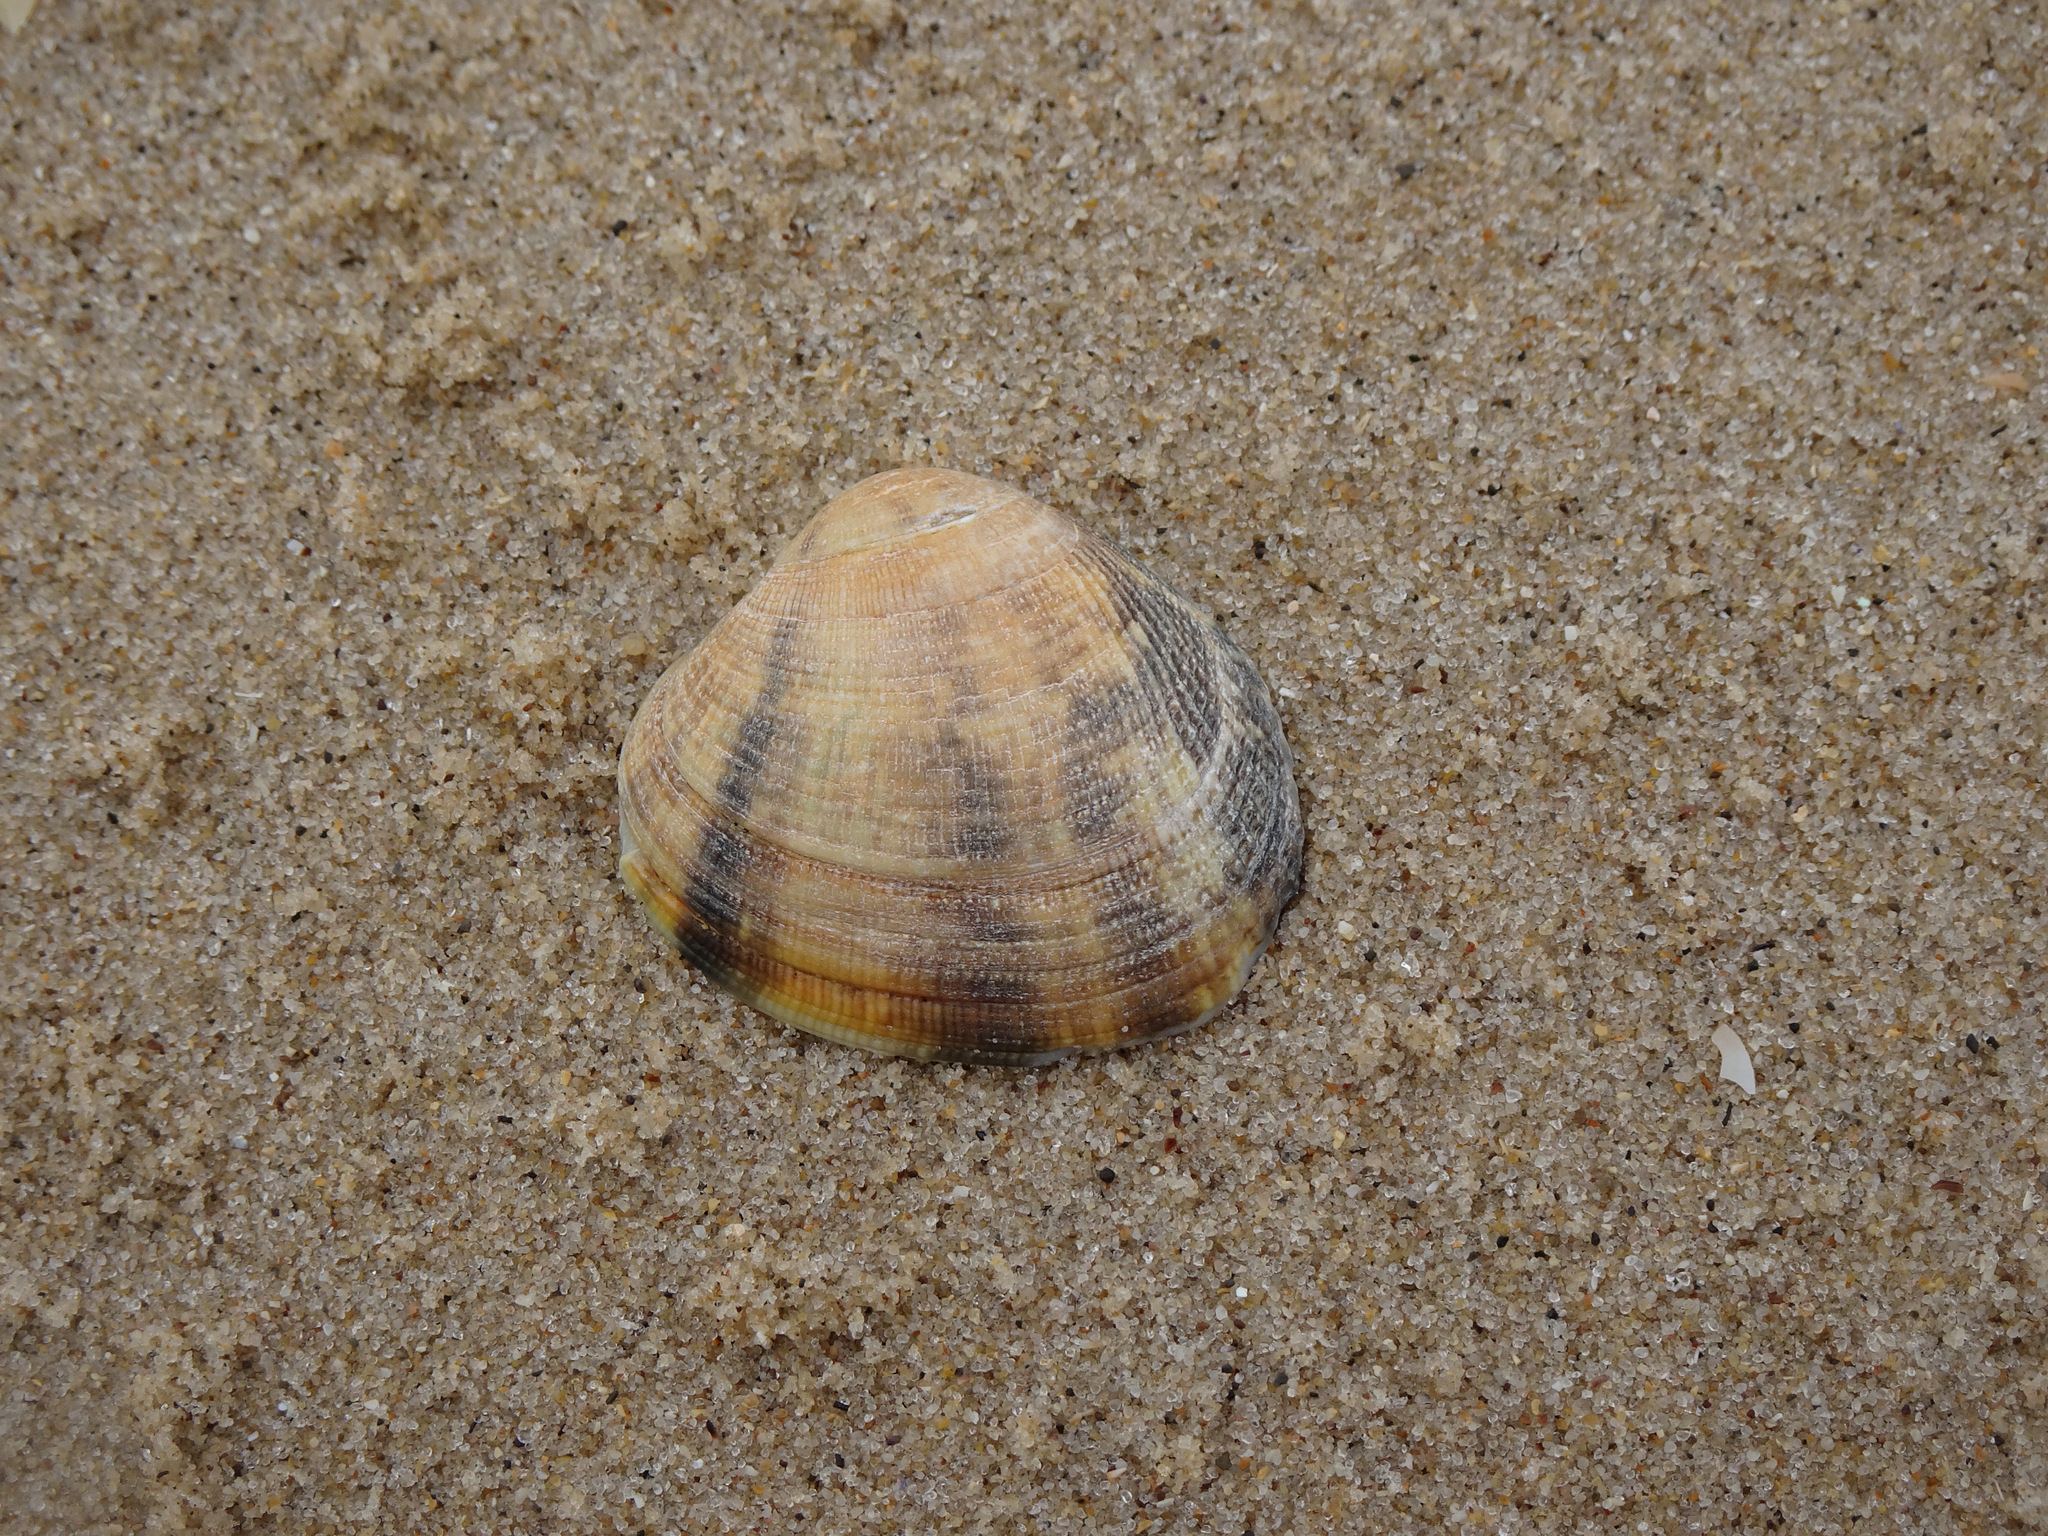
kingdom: Animalia
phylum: Mollusca
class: Bivalvia
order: Venerida
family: Veneridae
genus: Ruditapes
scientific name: Ruditapes philippinarum
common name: Manila clam
